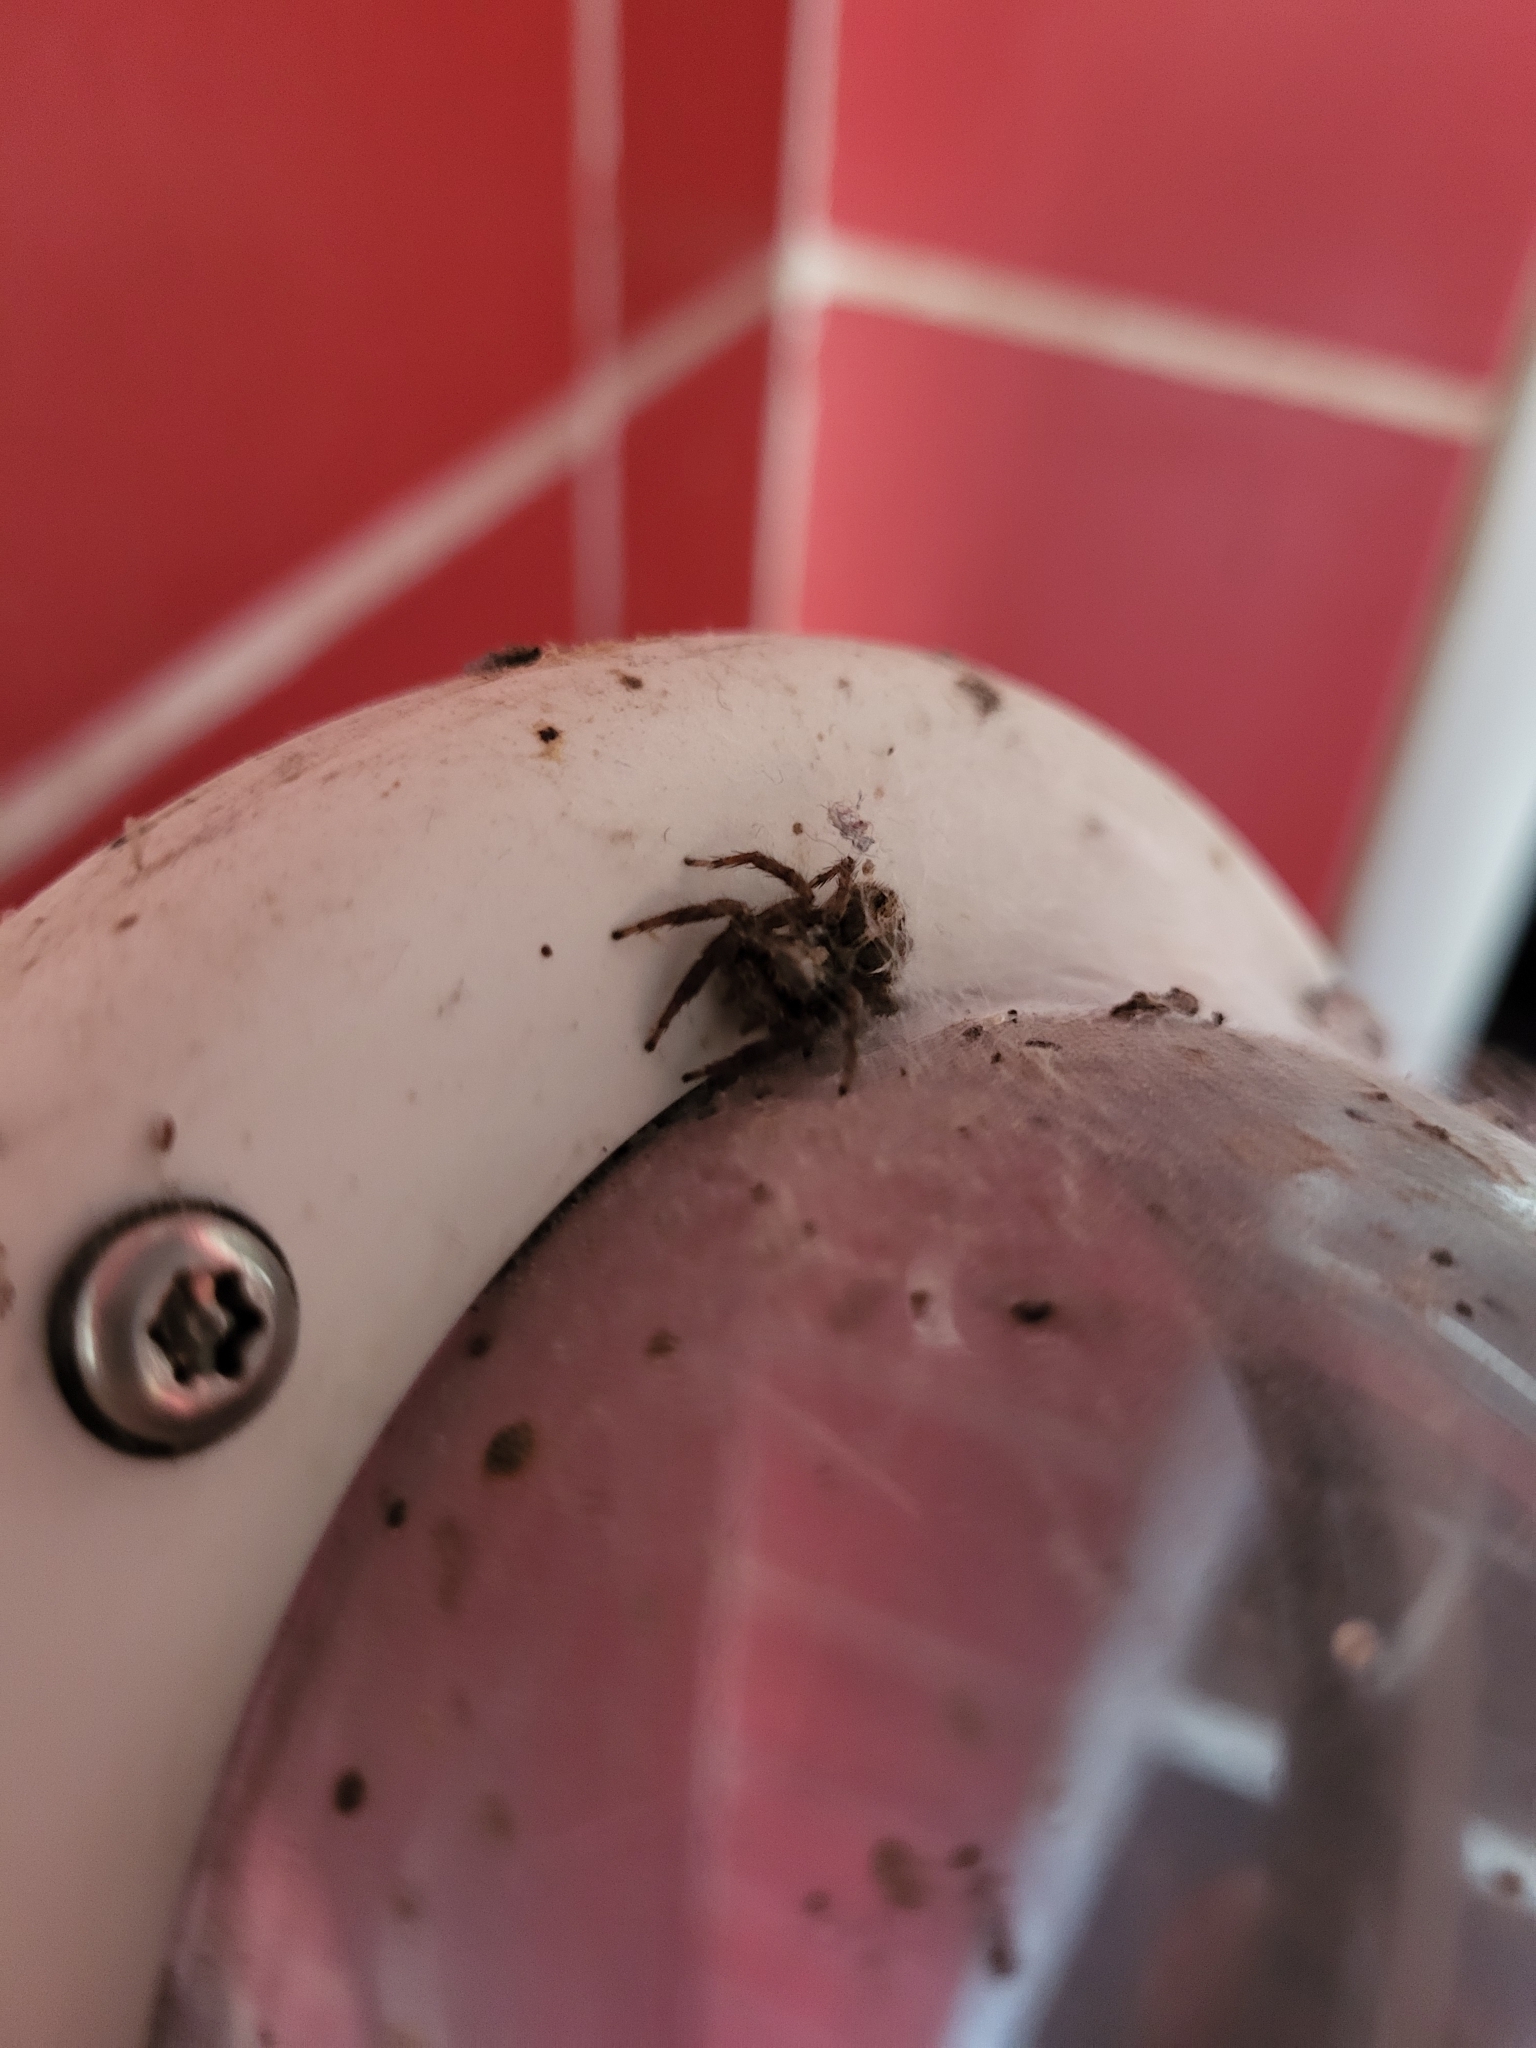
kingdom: Animalia
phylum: Arthropoda
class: Arachnida
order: Araneae
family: Salticidae
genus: Plexippus
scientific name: Plexippus paykulli
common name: Pantropical jumper
